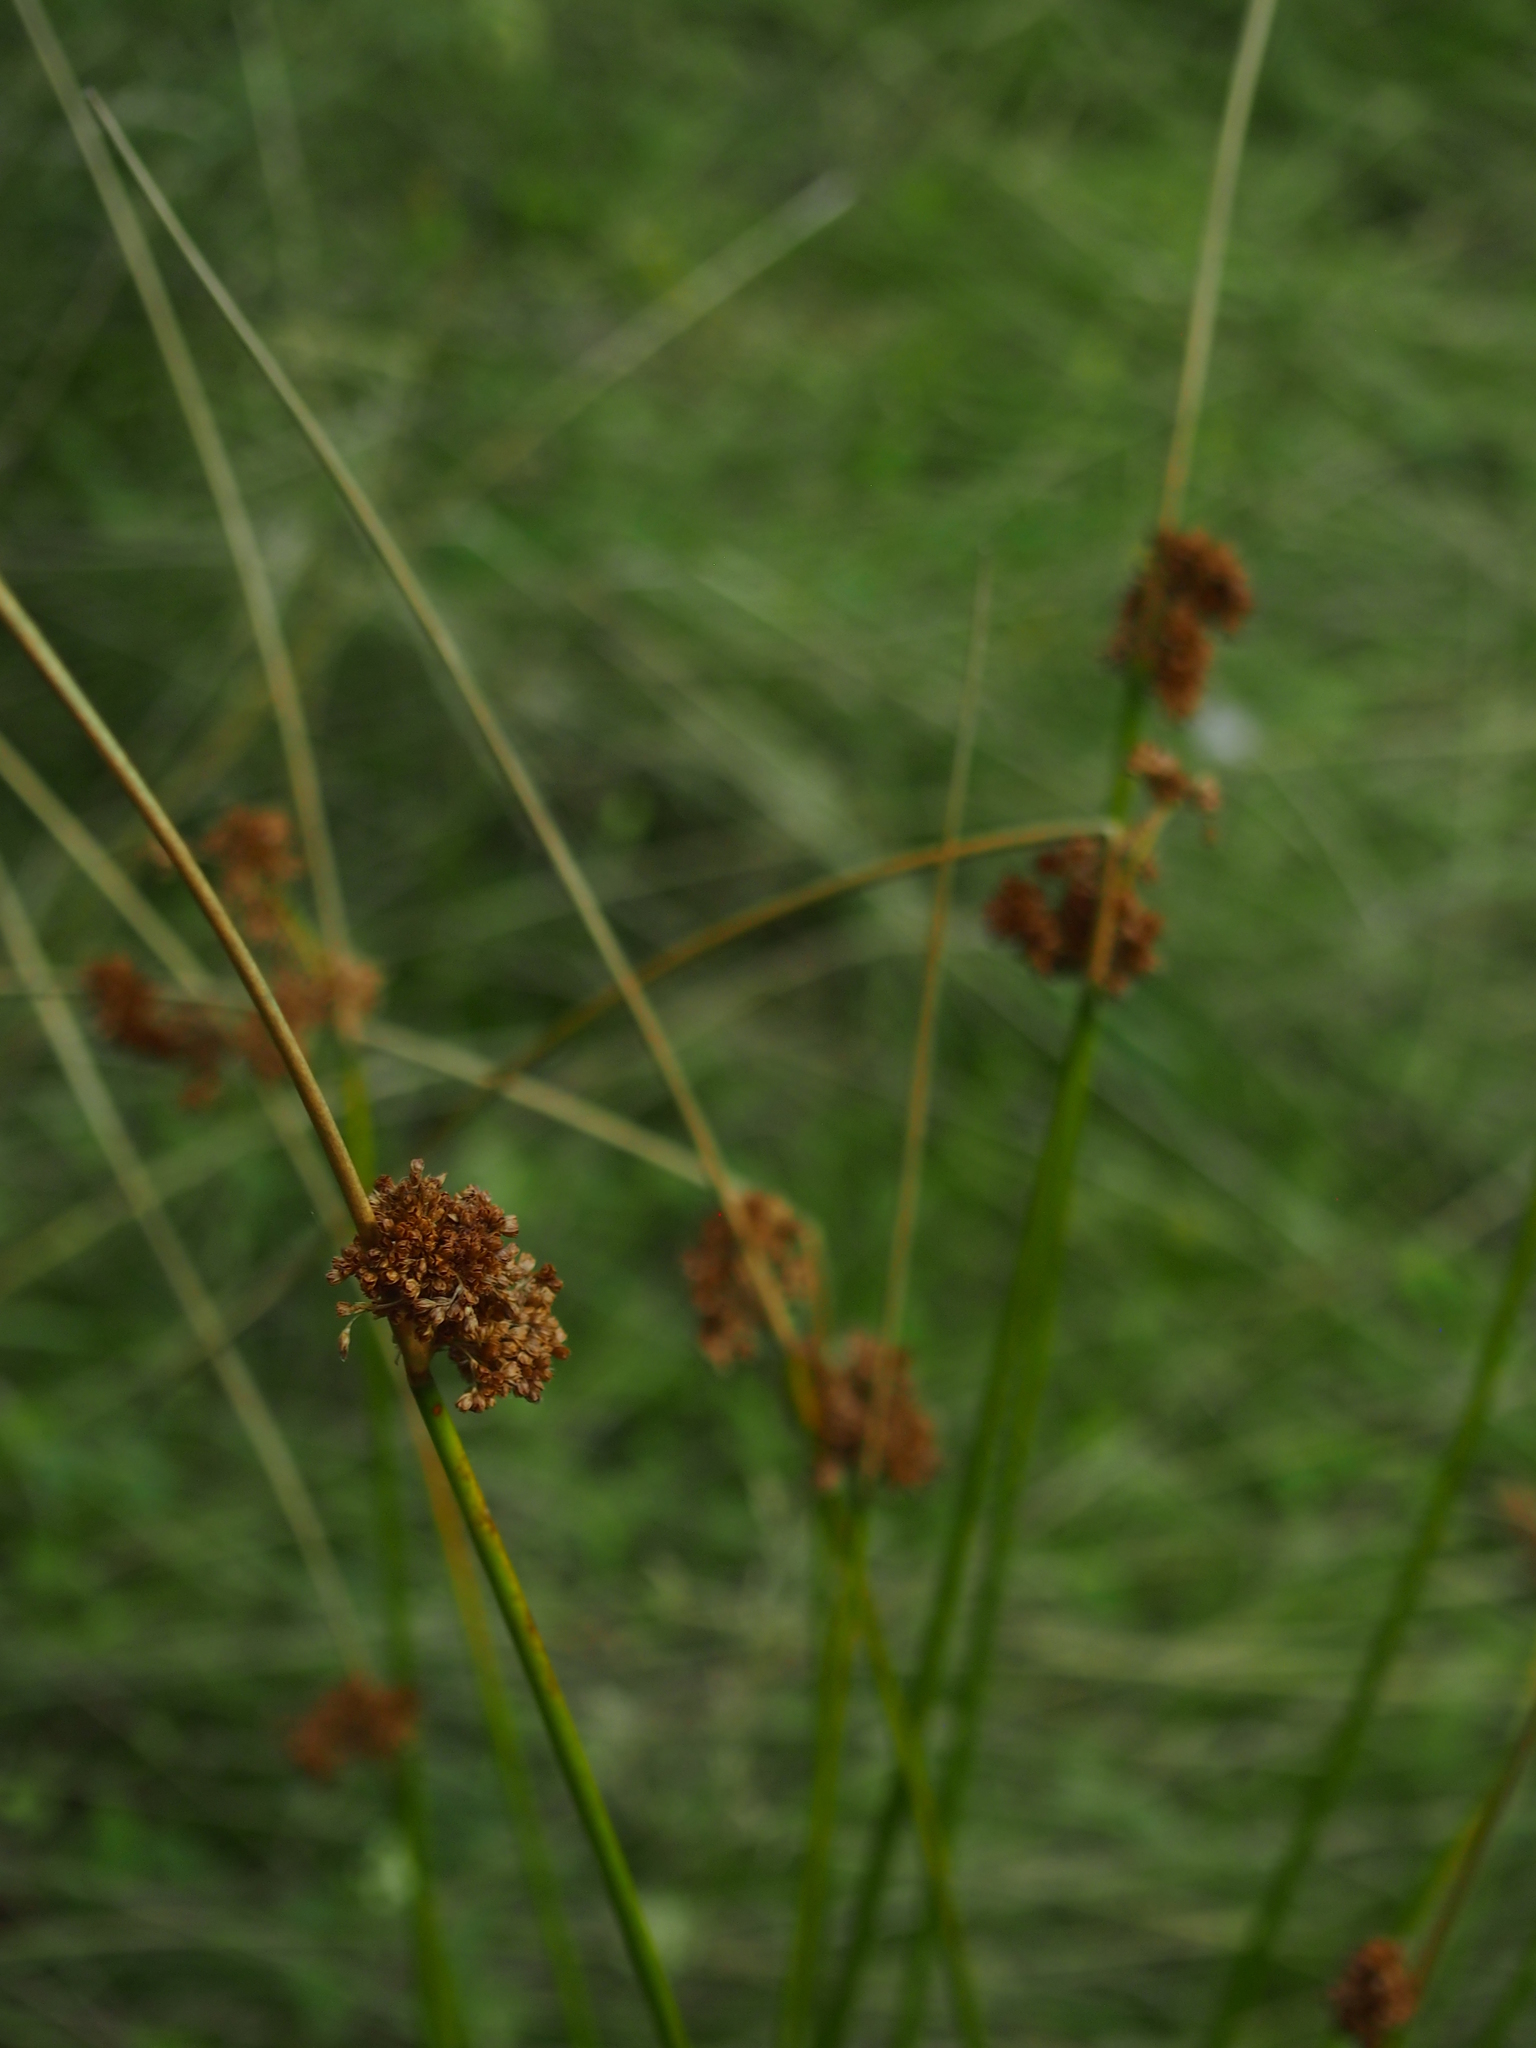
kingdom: Plantae
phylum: Tracheophyta
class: Liliopsida
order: Poales
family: Juncaceae
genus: Juncus
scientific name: Juncus effusus
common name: Soft rush
